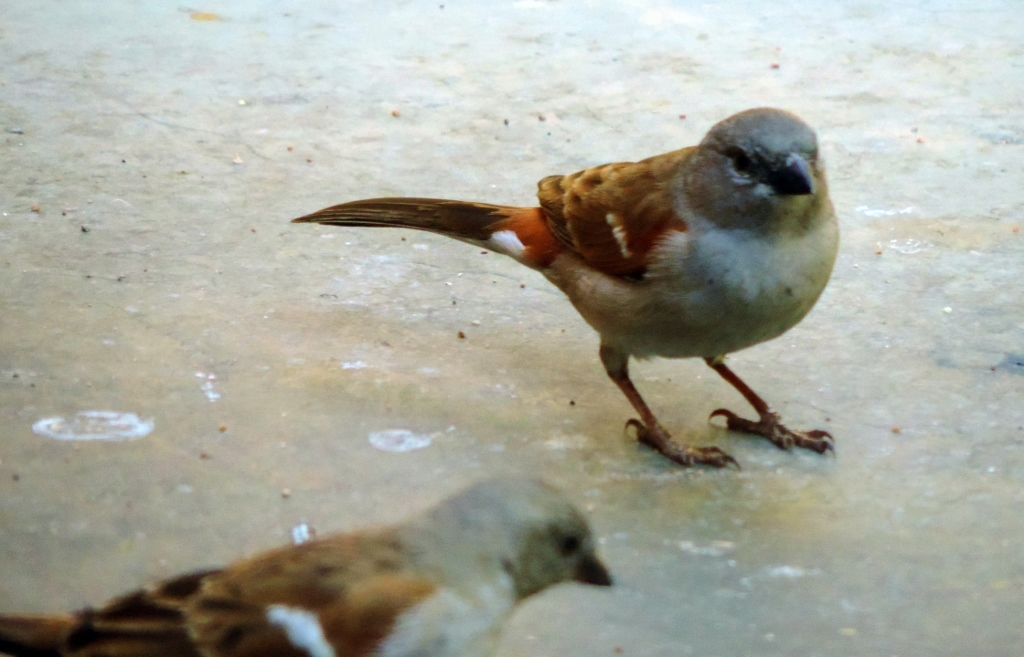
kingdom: Animalia
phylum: Chordata
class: Aves
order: Passeriformes
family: Passeridae
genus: Passer
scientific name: Passer diffusus
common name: Southern grey-headed sparrow
